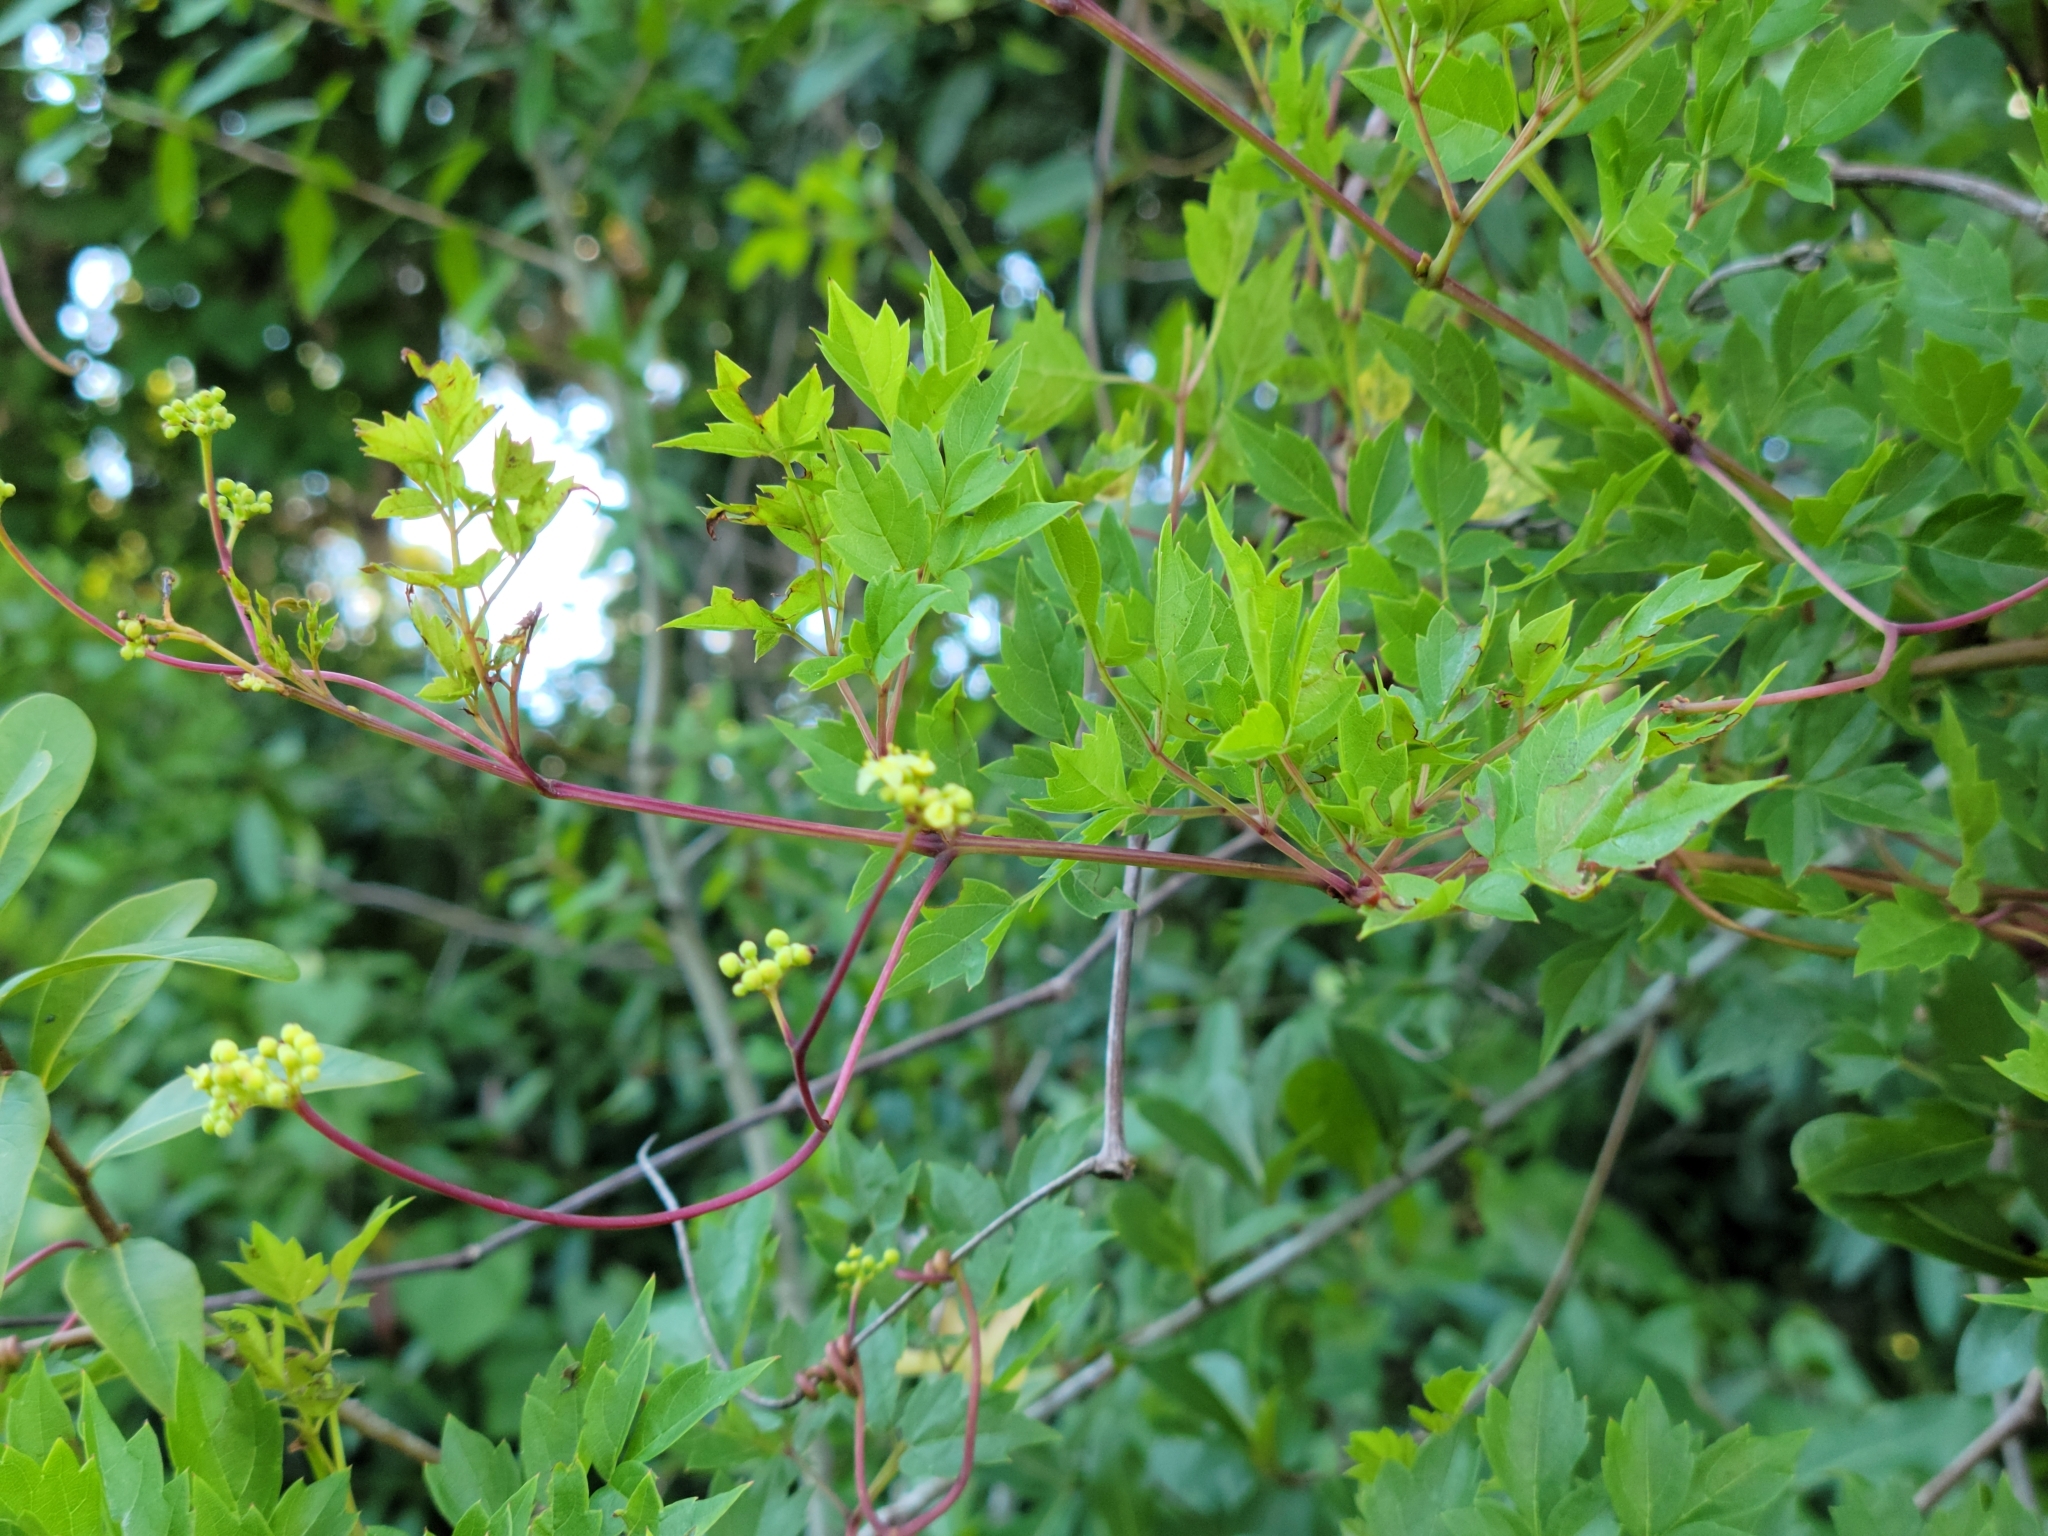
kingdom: Plantae
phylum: Tracheophyta
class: Magnoliopsida
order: Vitales
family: Vitaceae
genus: Nekemias
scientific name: Nekemias arborea
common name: Peppervine
